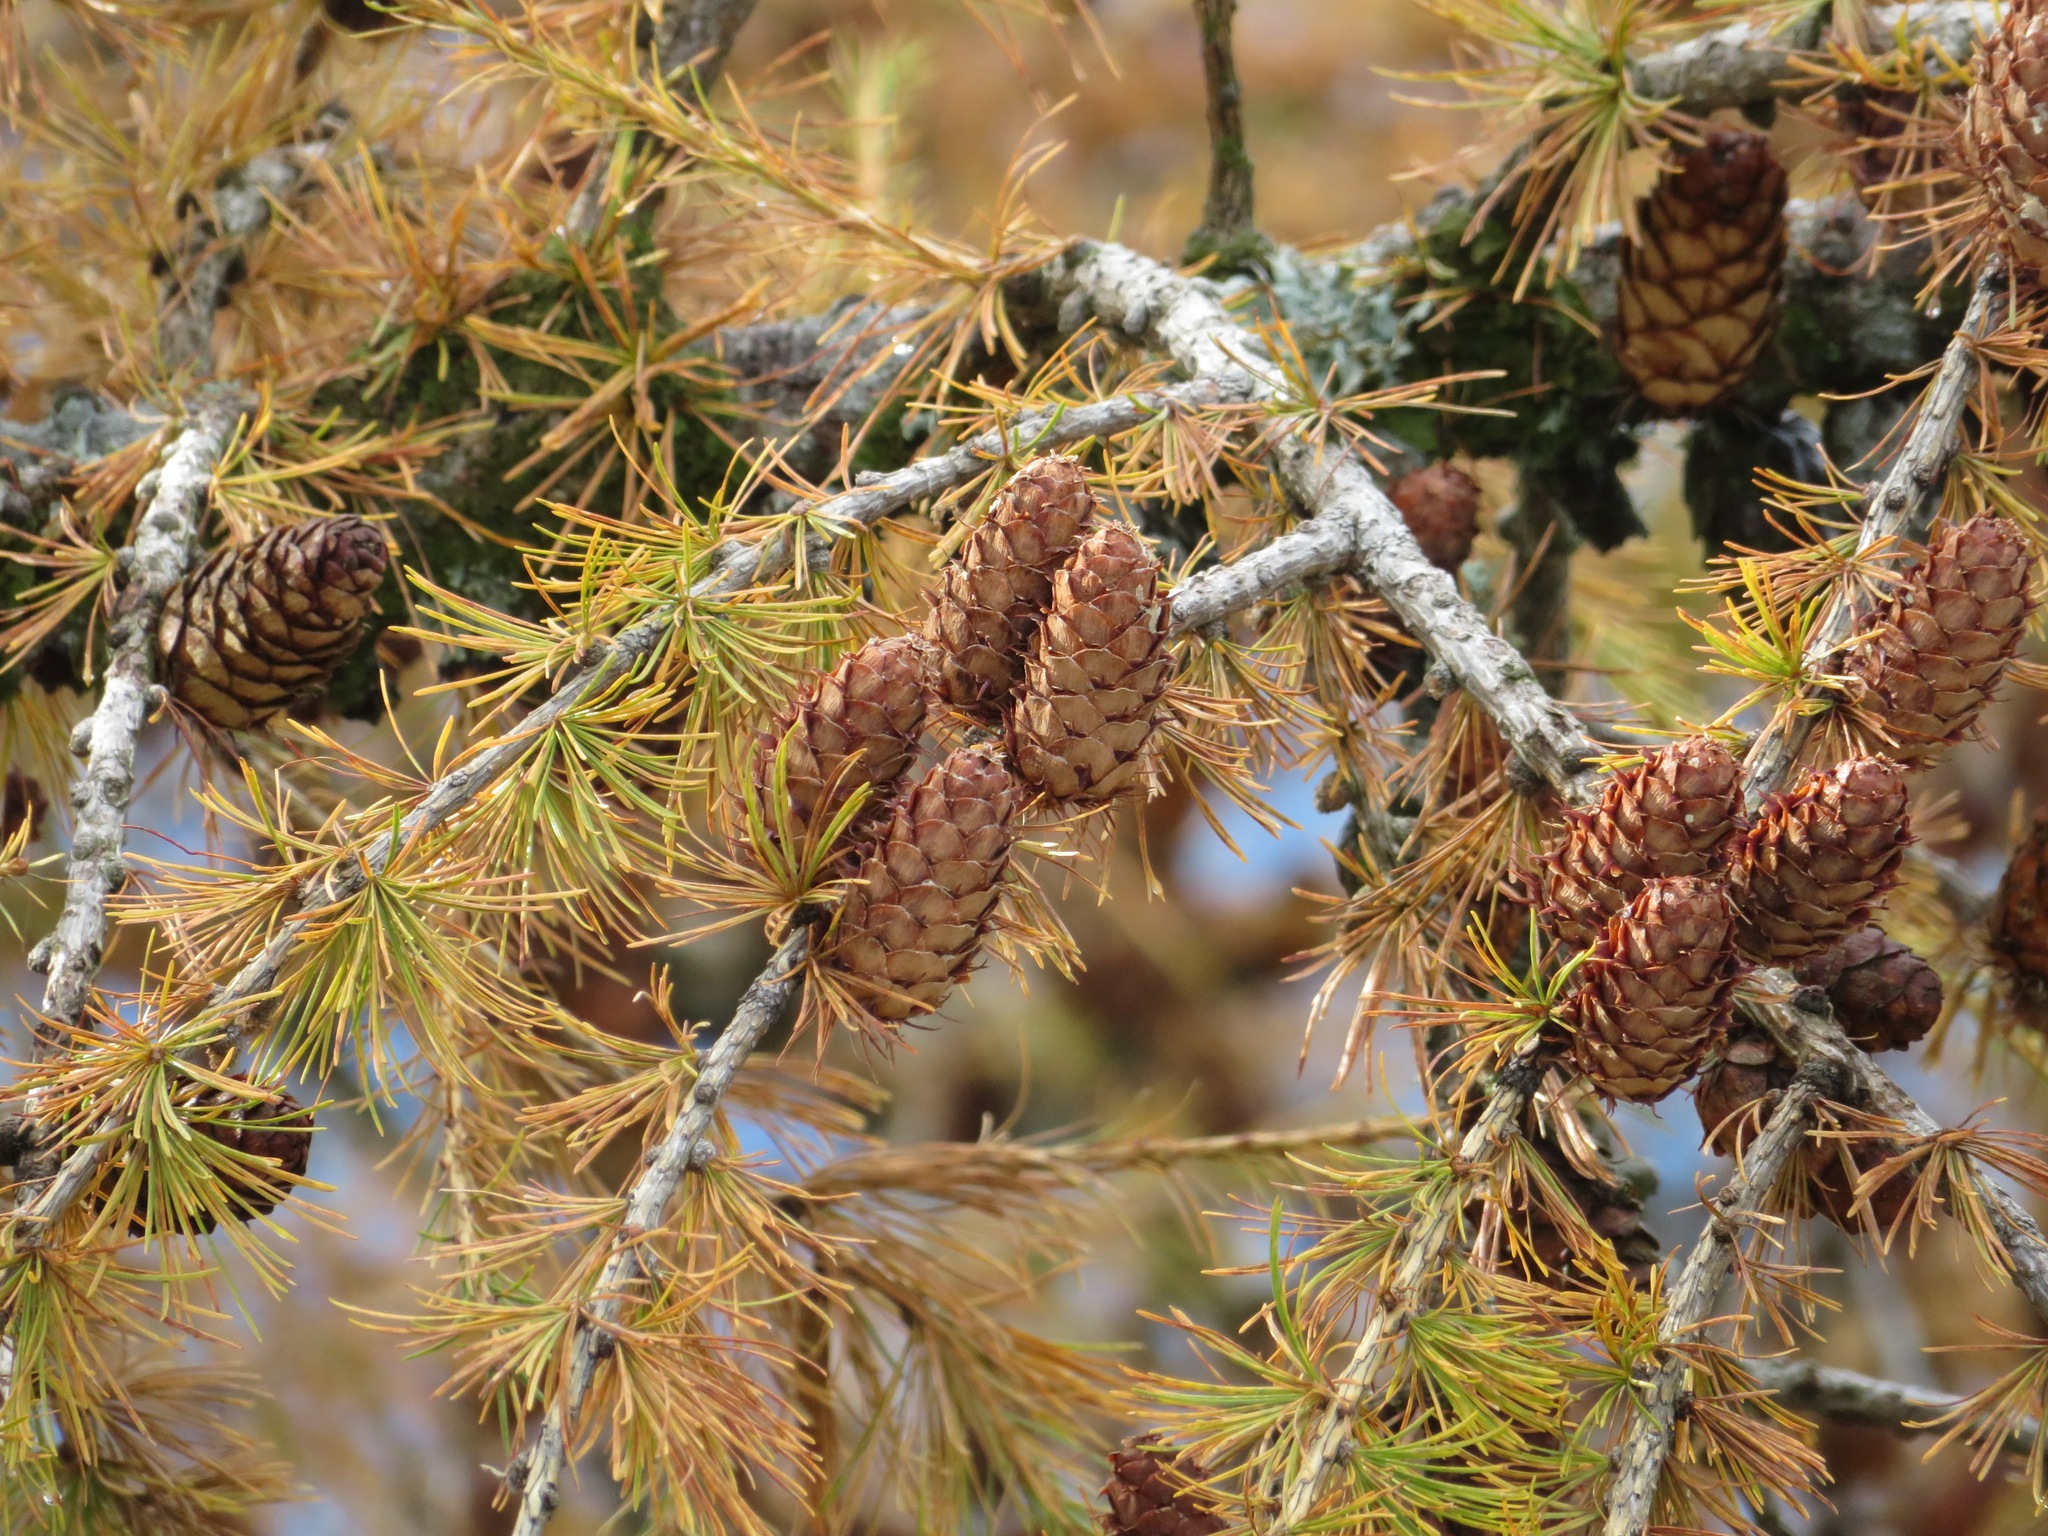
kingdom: Plantae
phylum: Tracheophyta
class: Pinopsida
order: Pinales
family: Pinaceae
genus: Larix
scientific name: Larix decidua
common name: European larch
